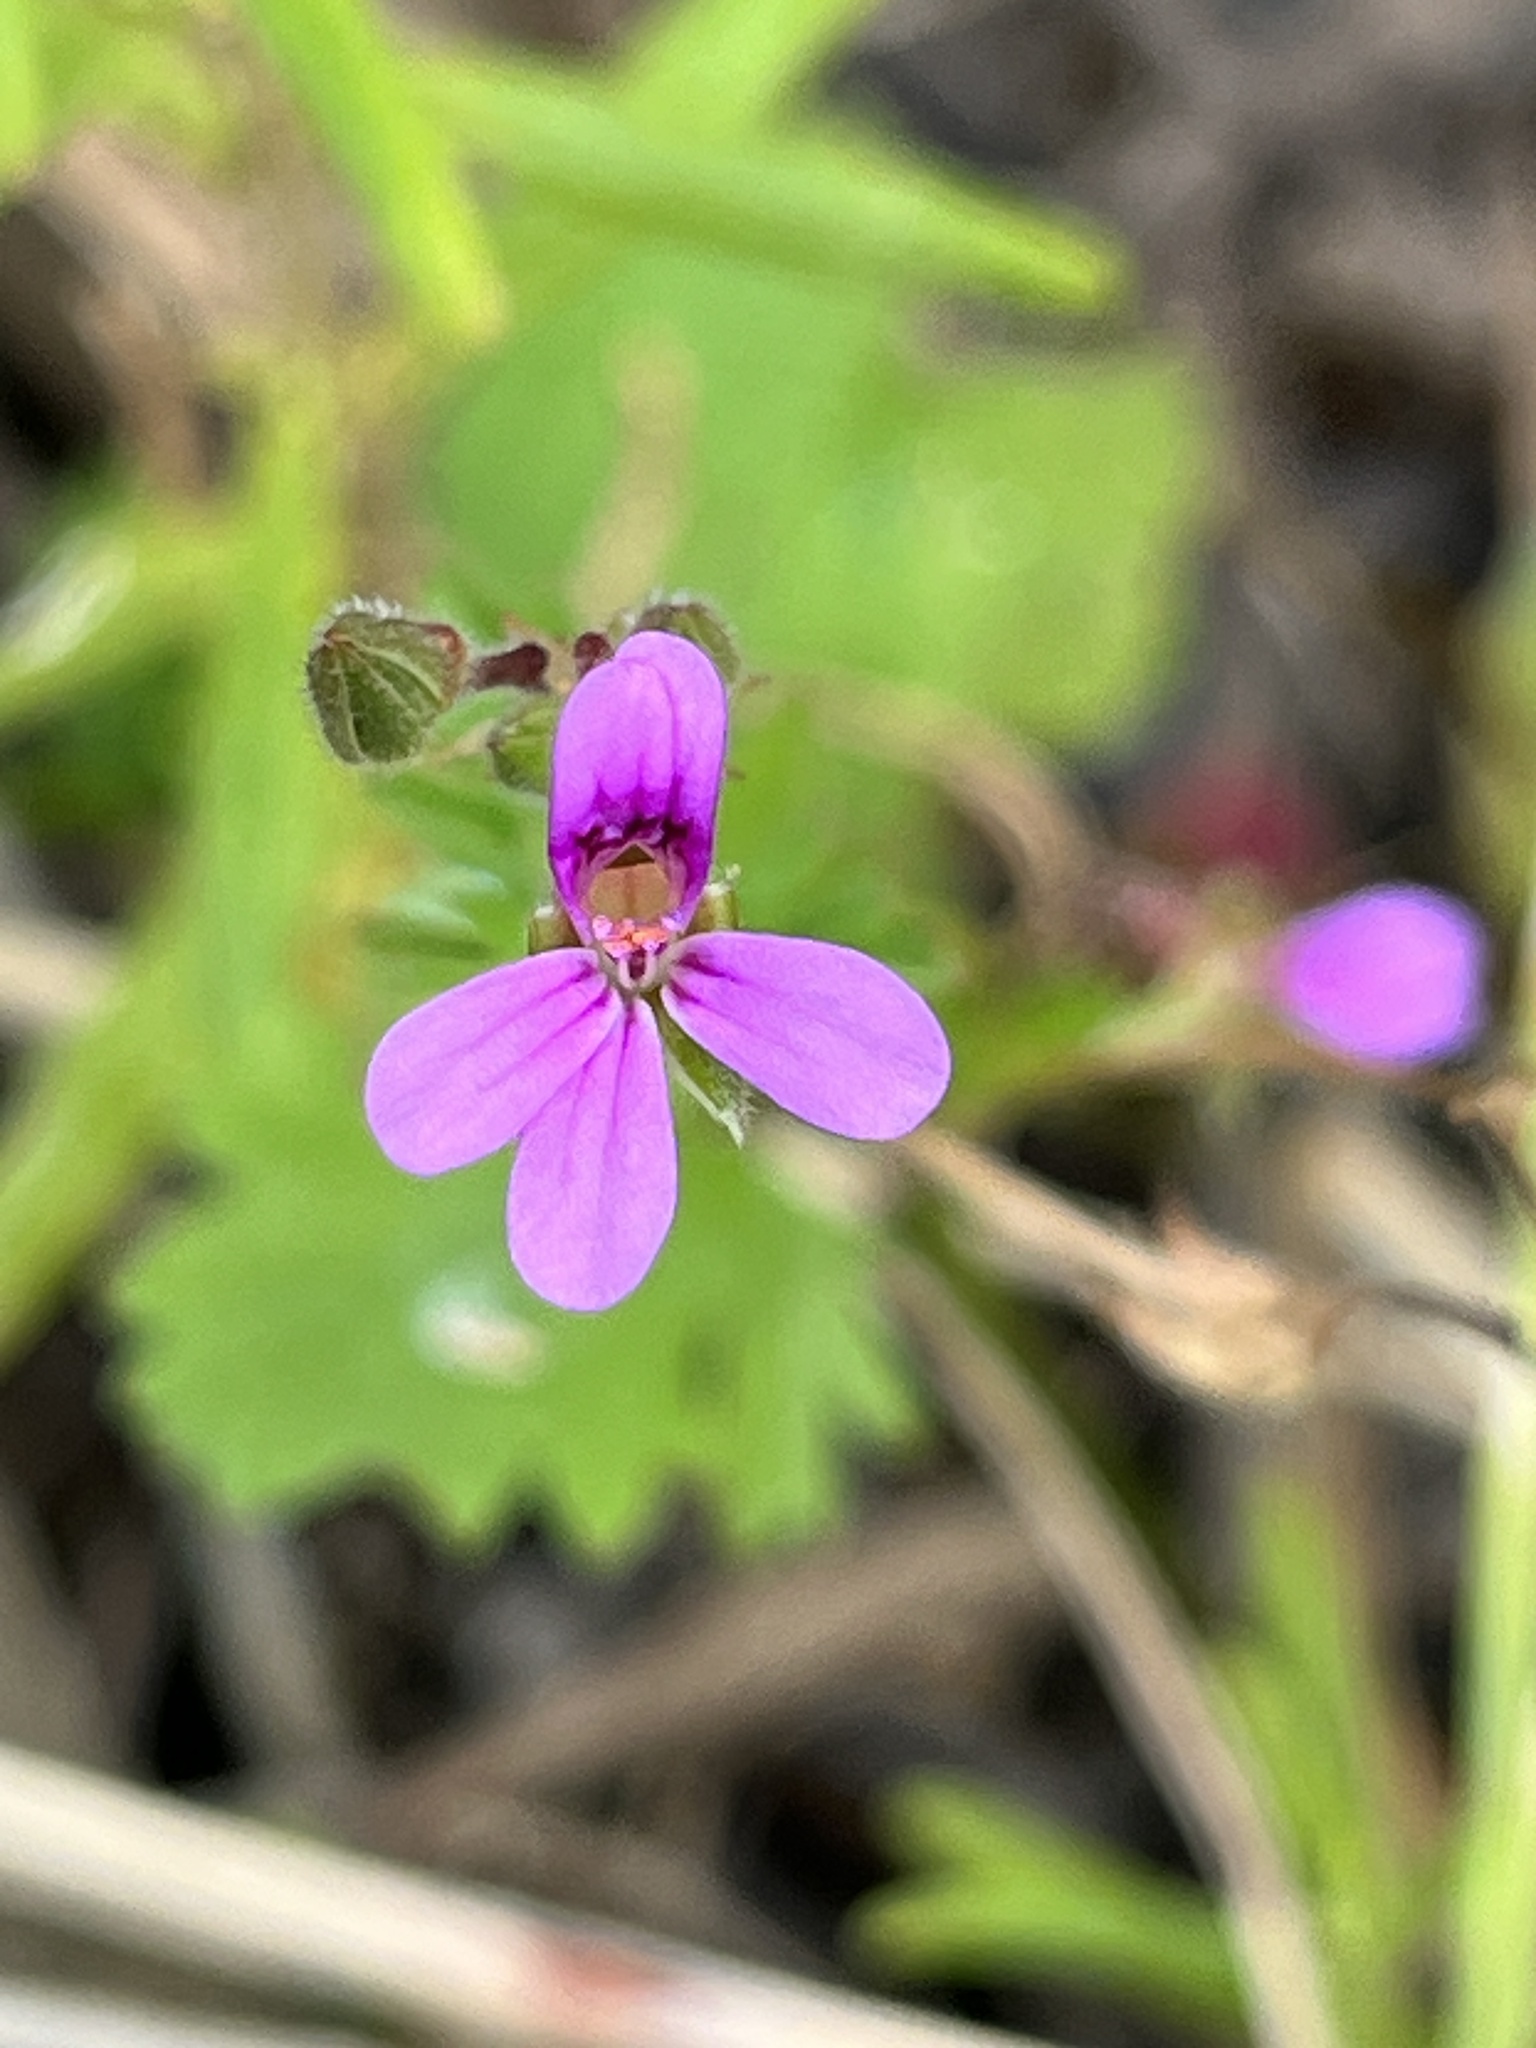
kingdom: Plantae
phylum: Tracheophyta
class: Magnoliopsida
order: Geraniales
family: Geraniaceae
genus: Pelargonium
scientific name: Pelargonium grossularioides
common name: Gooseberry geranium
